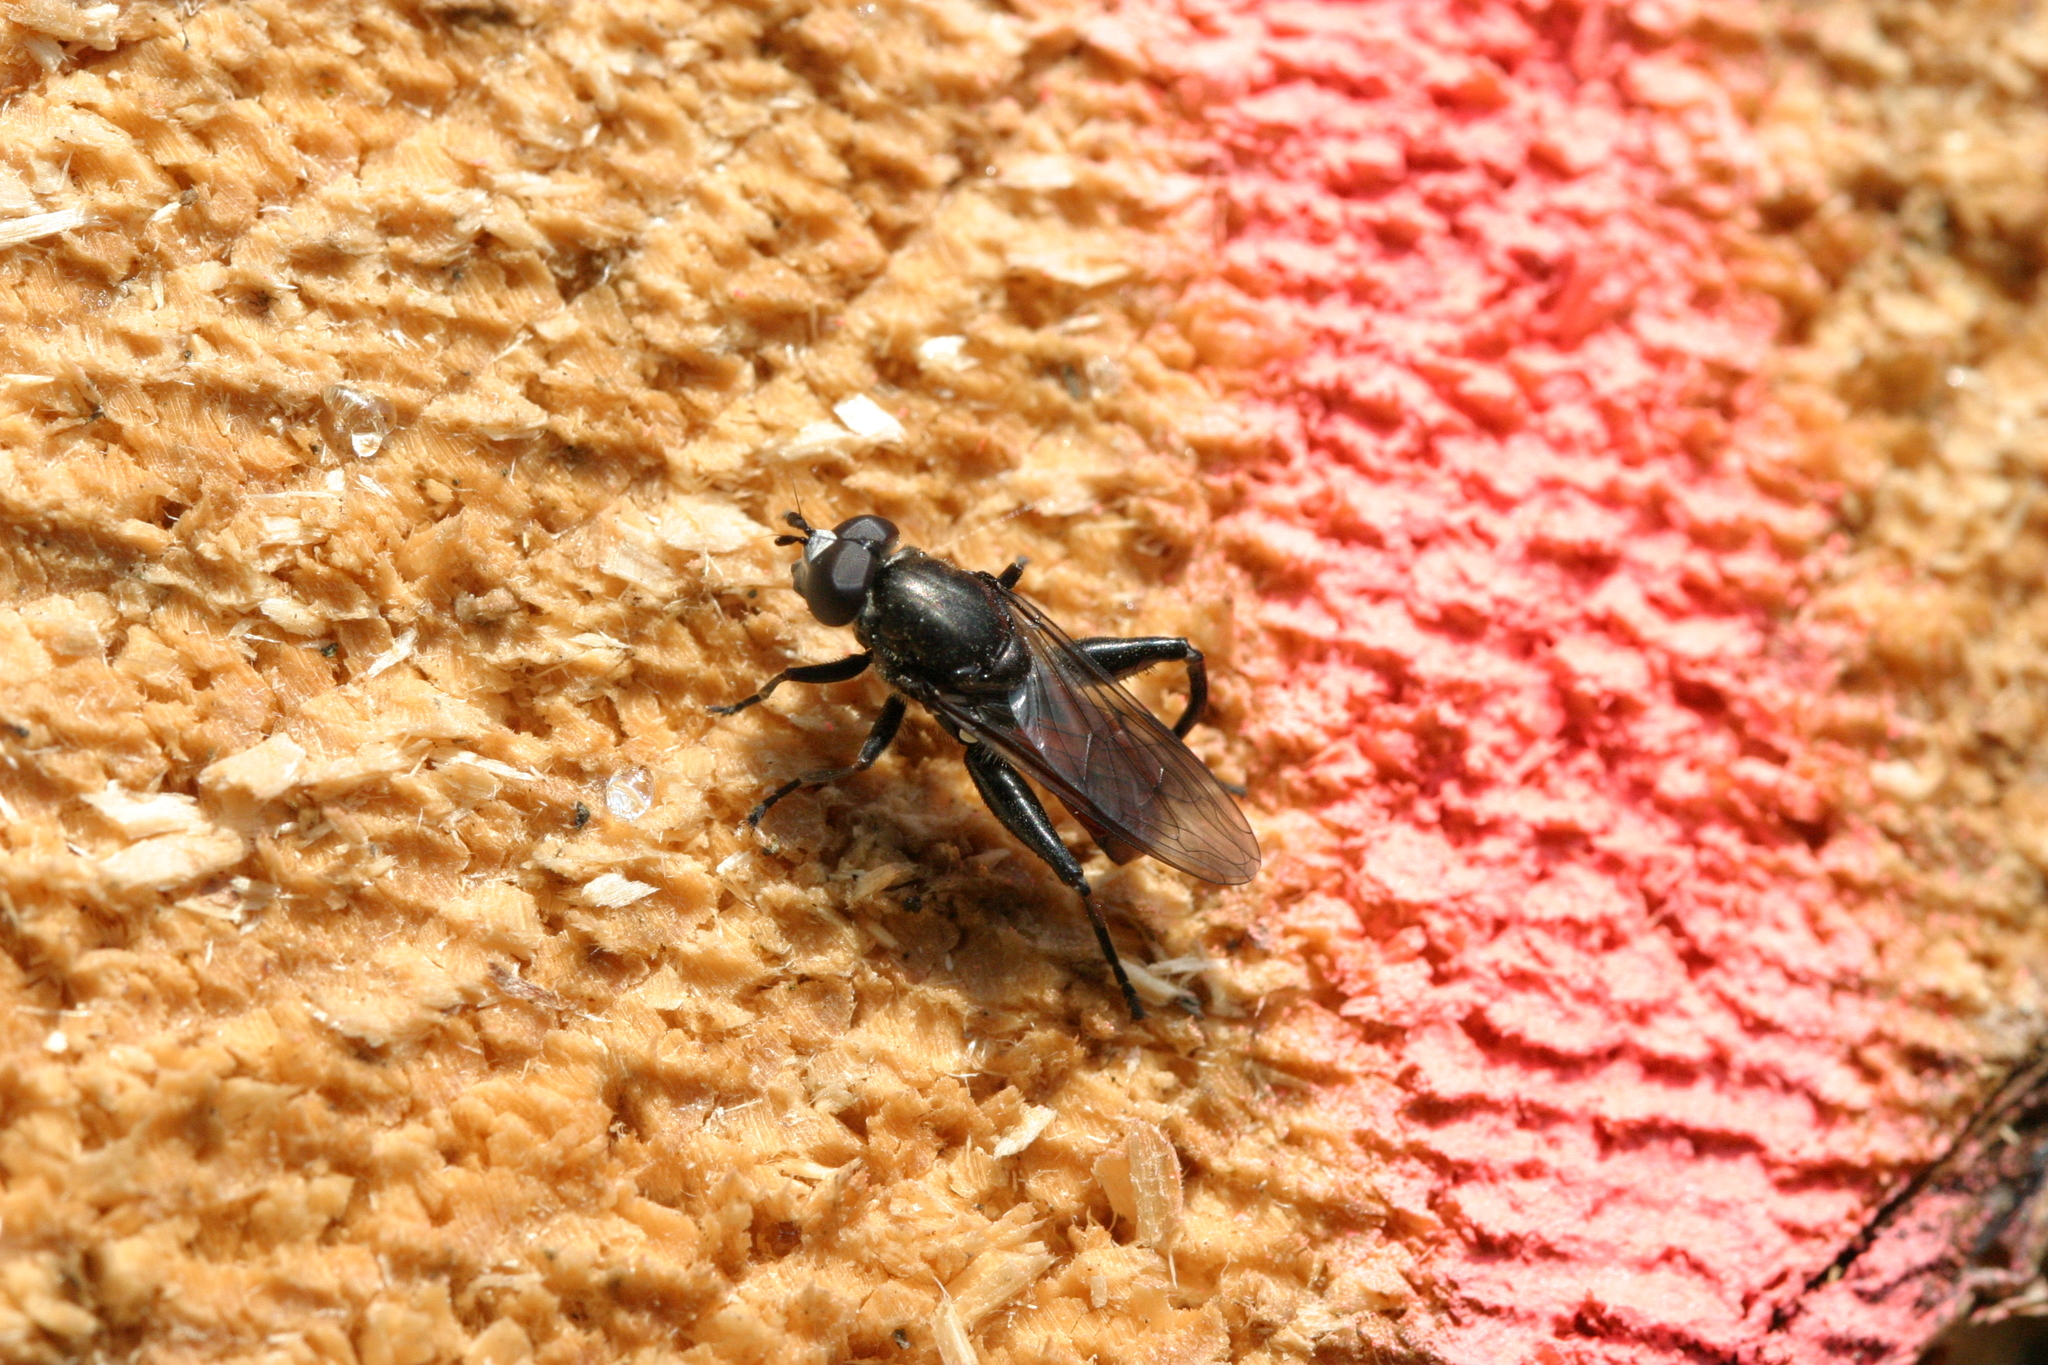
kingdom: Animalia
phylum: Arthropoda
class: Insecta
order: Diptera
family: Syrphidae
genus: Chalcosyrphus
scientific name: Chalcosyrphus piger
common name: Short-haired leafwalker
